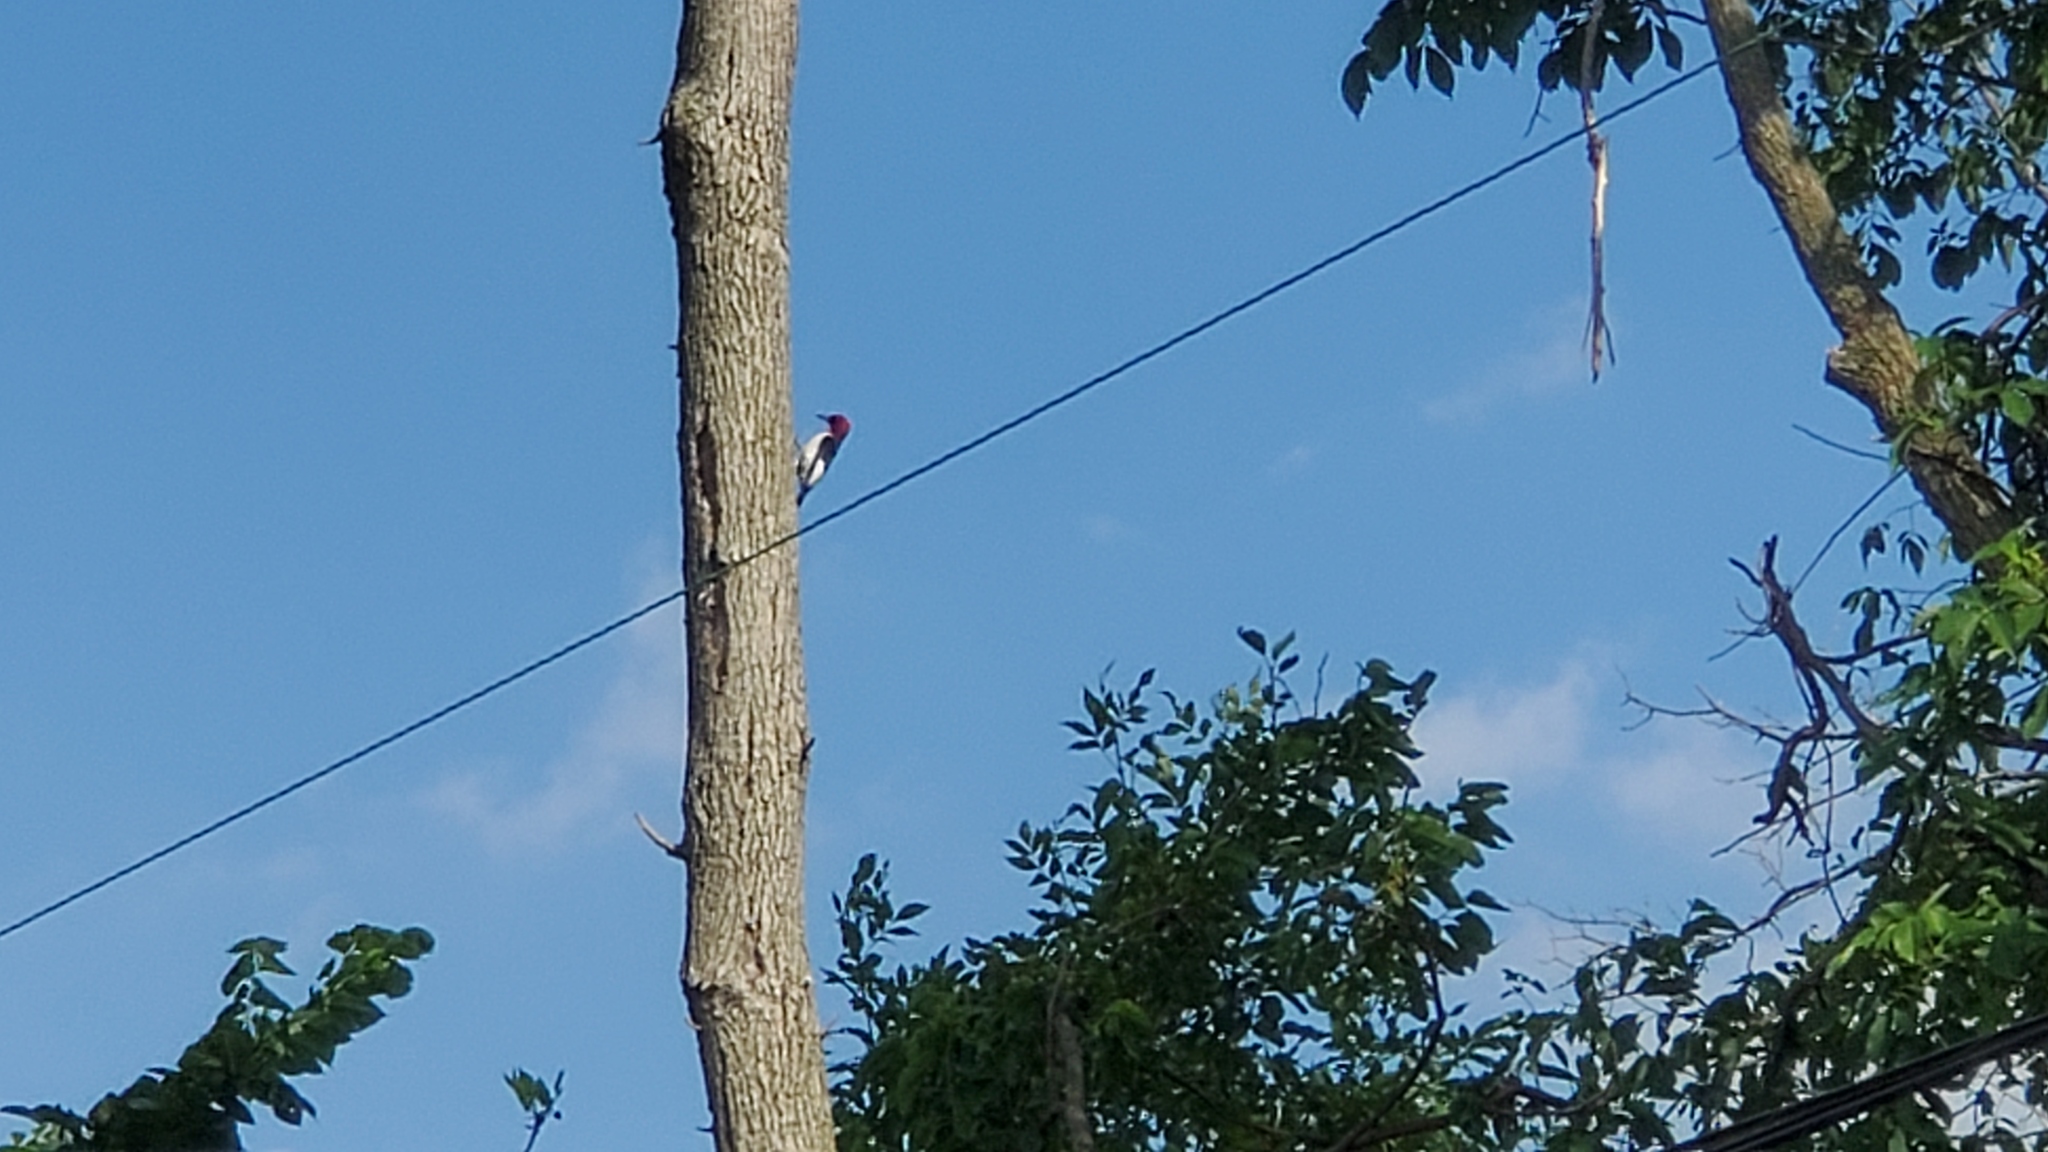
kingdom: Animalia
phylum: Chordata
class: Aves
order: Piciformes
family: Picidae
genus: Melanerpes
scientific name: Melanerpes erythrocephalus
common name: Red-headed woodpecker
